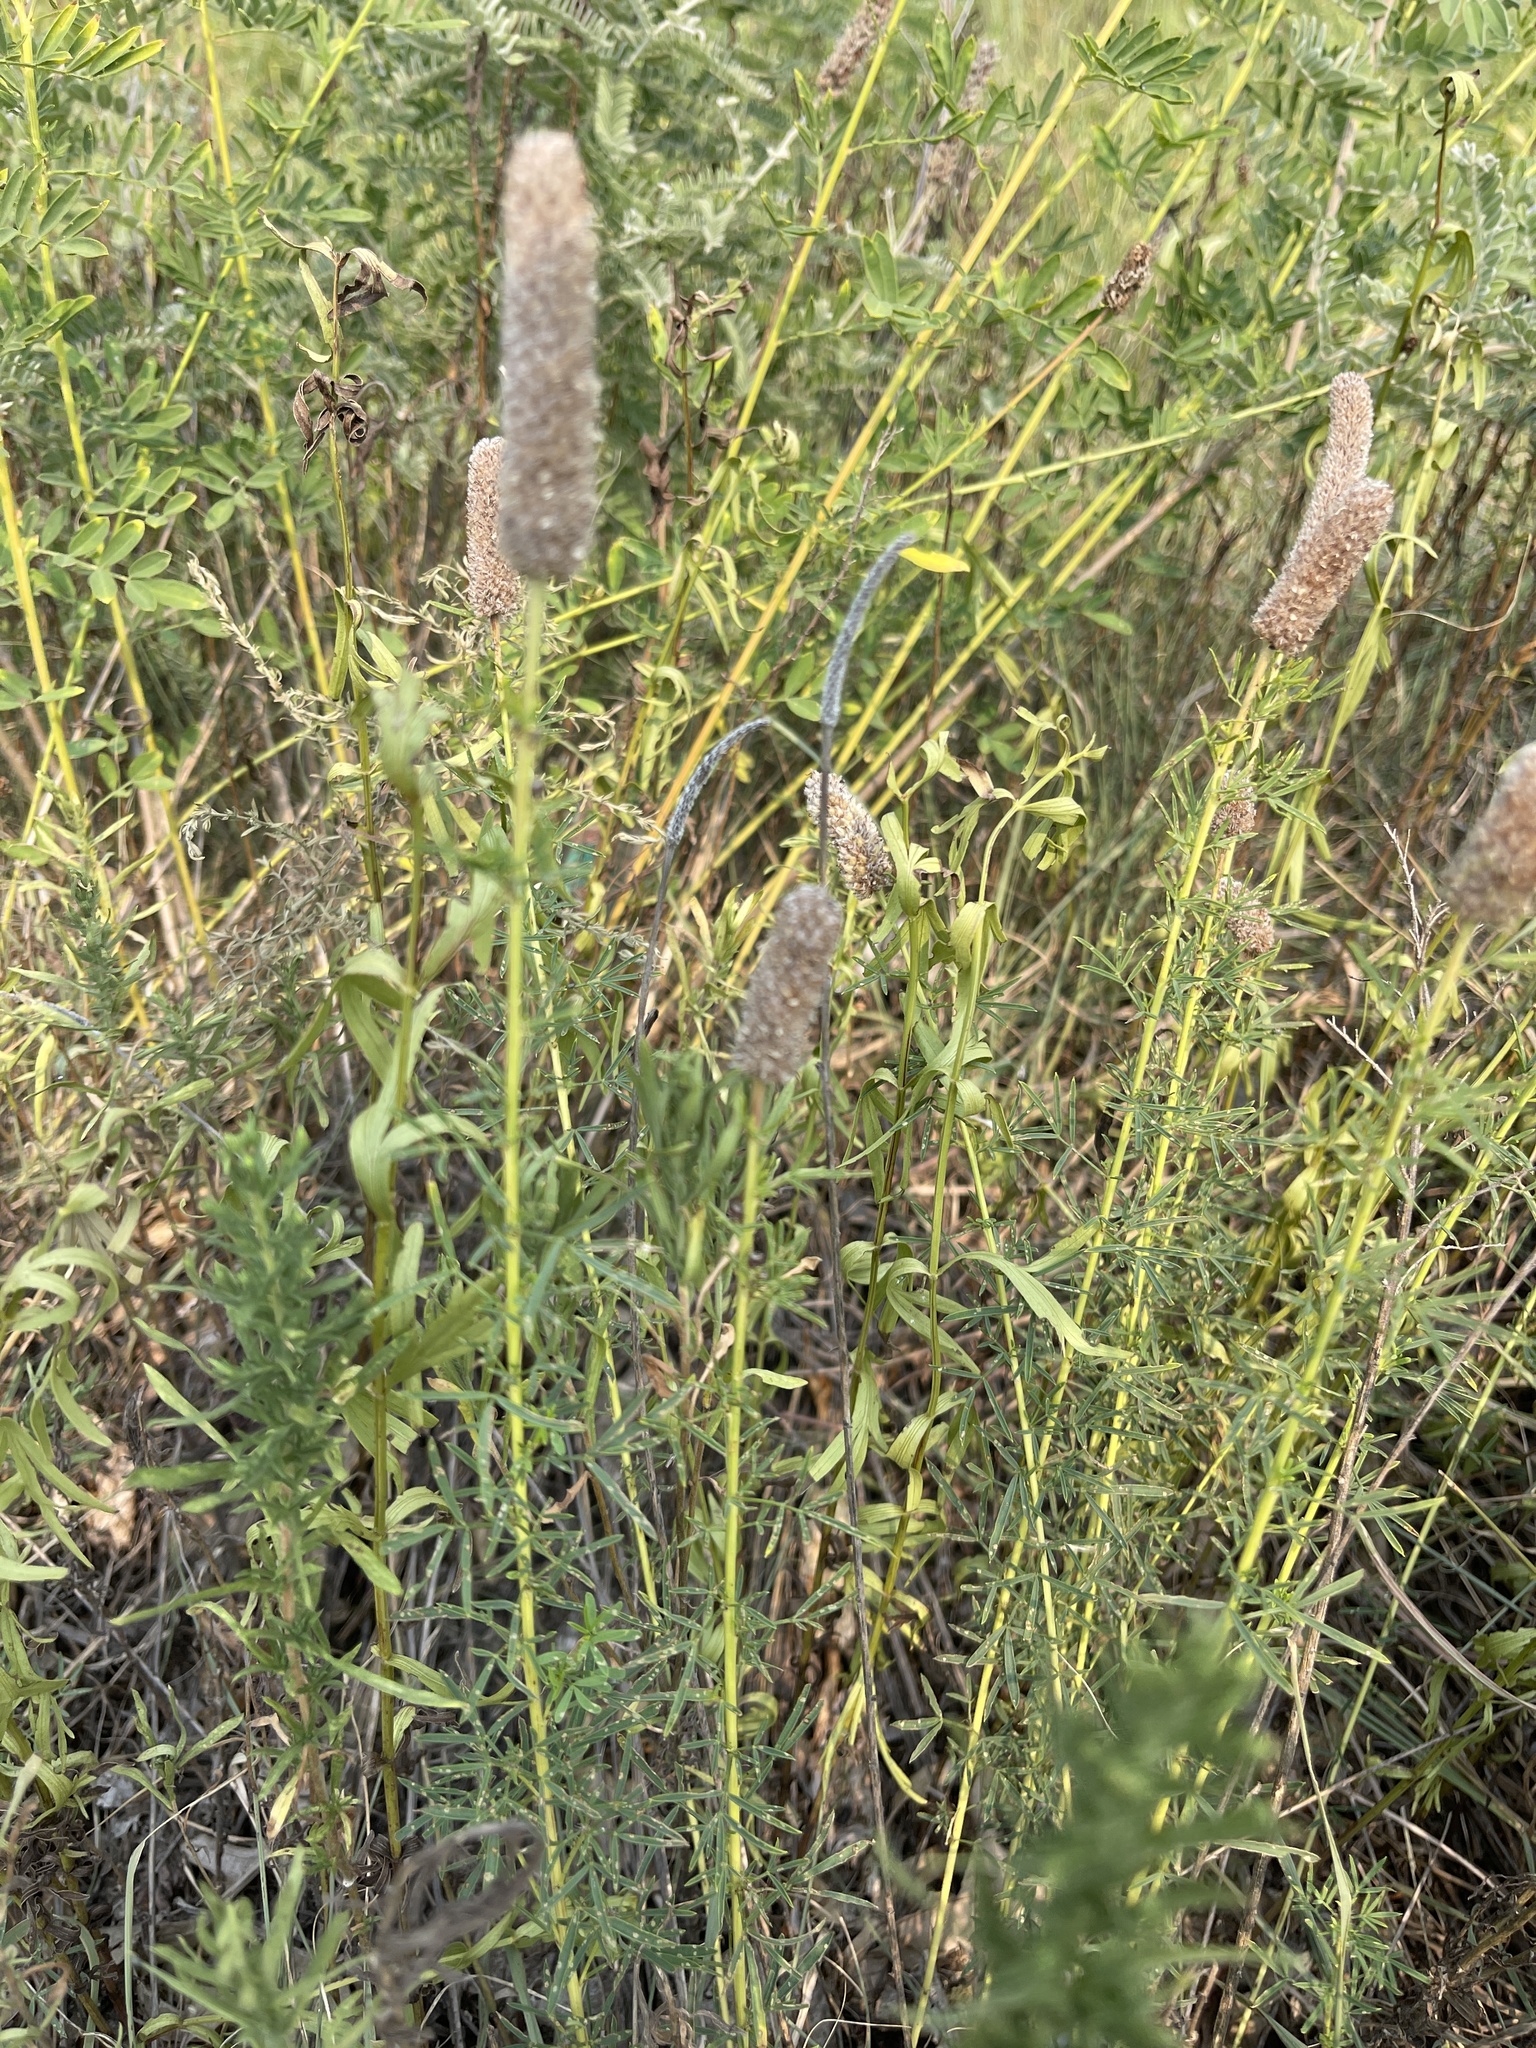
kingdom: Plantae
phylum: Tracheophyta
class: Magnoliopsida
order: Fabales
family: Fabaceae
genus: Dalea
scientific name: Dalea purpurea
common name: Purple prairie-clover
